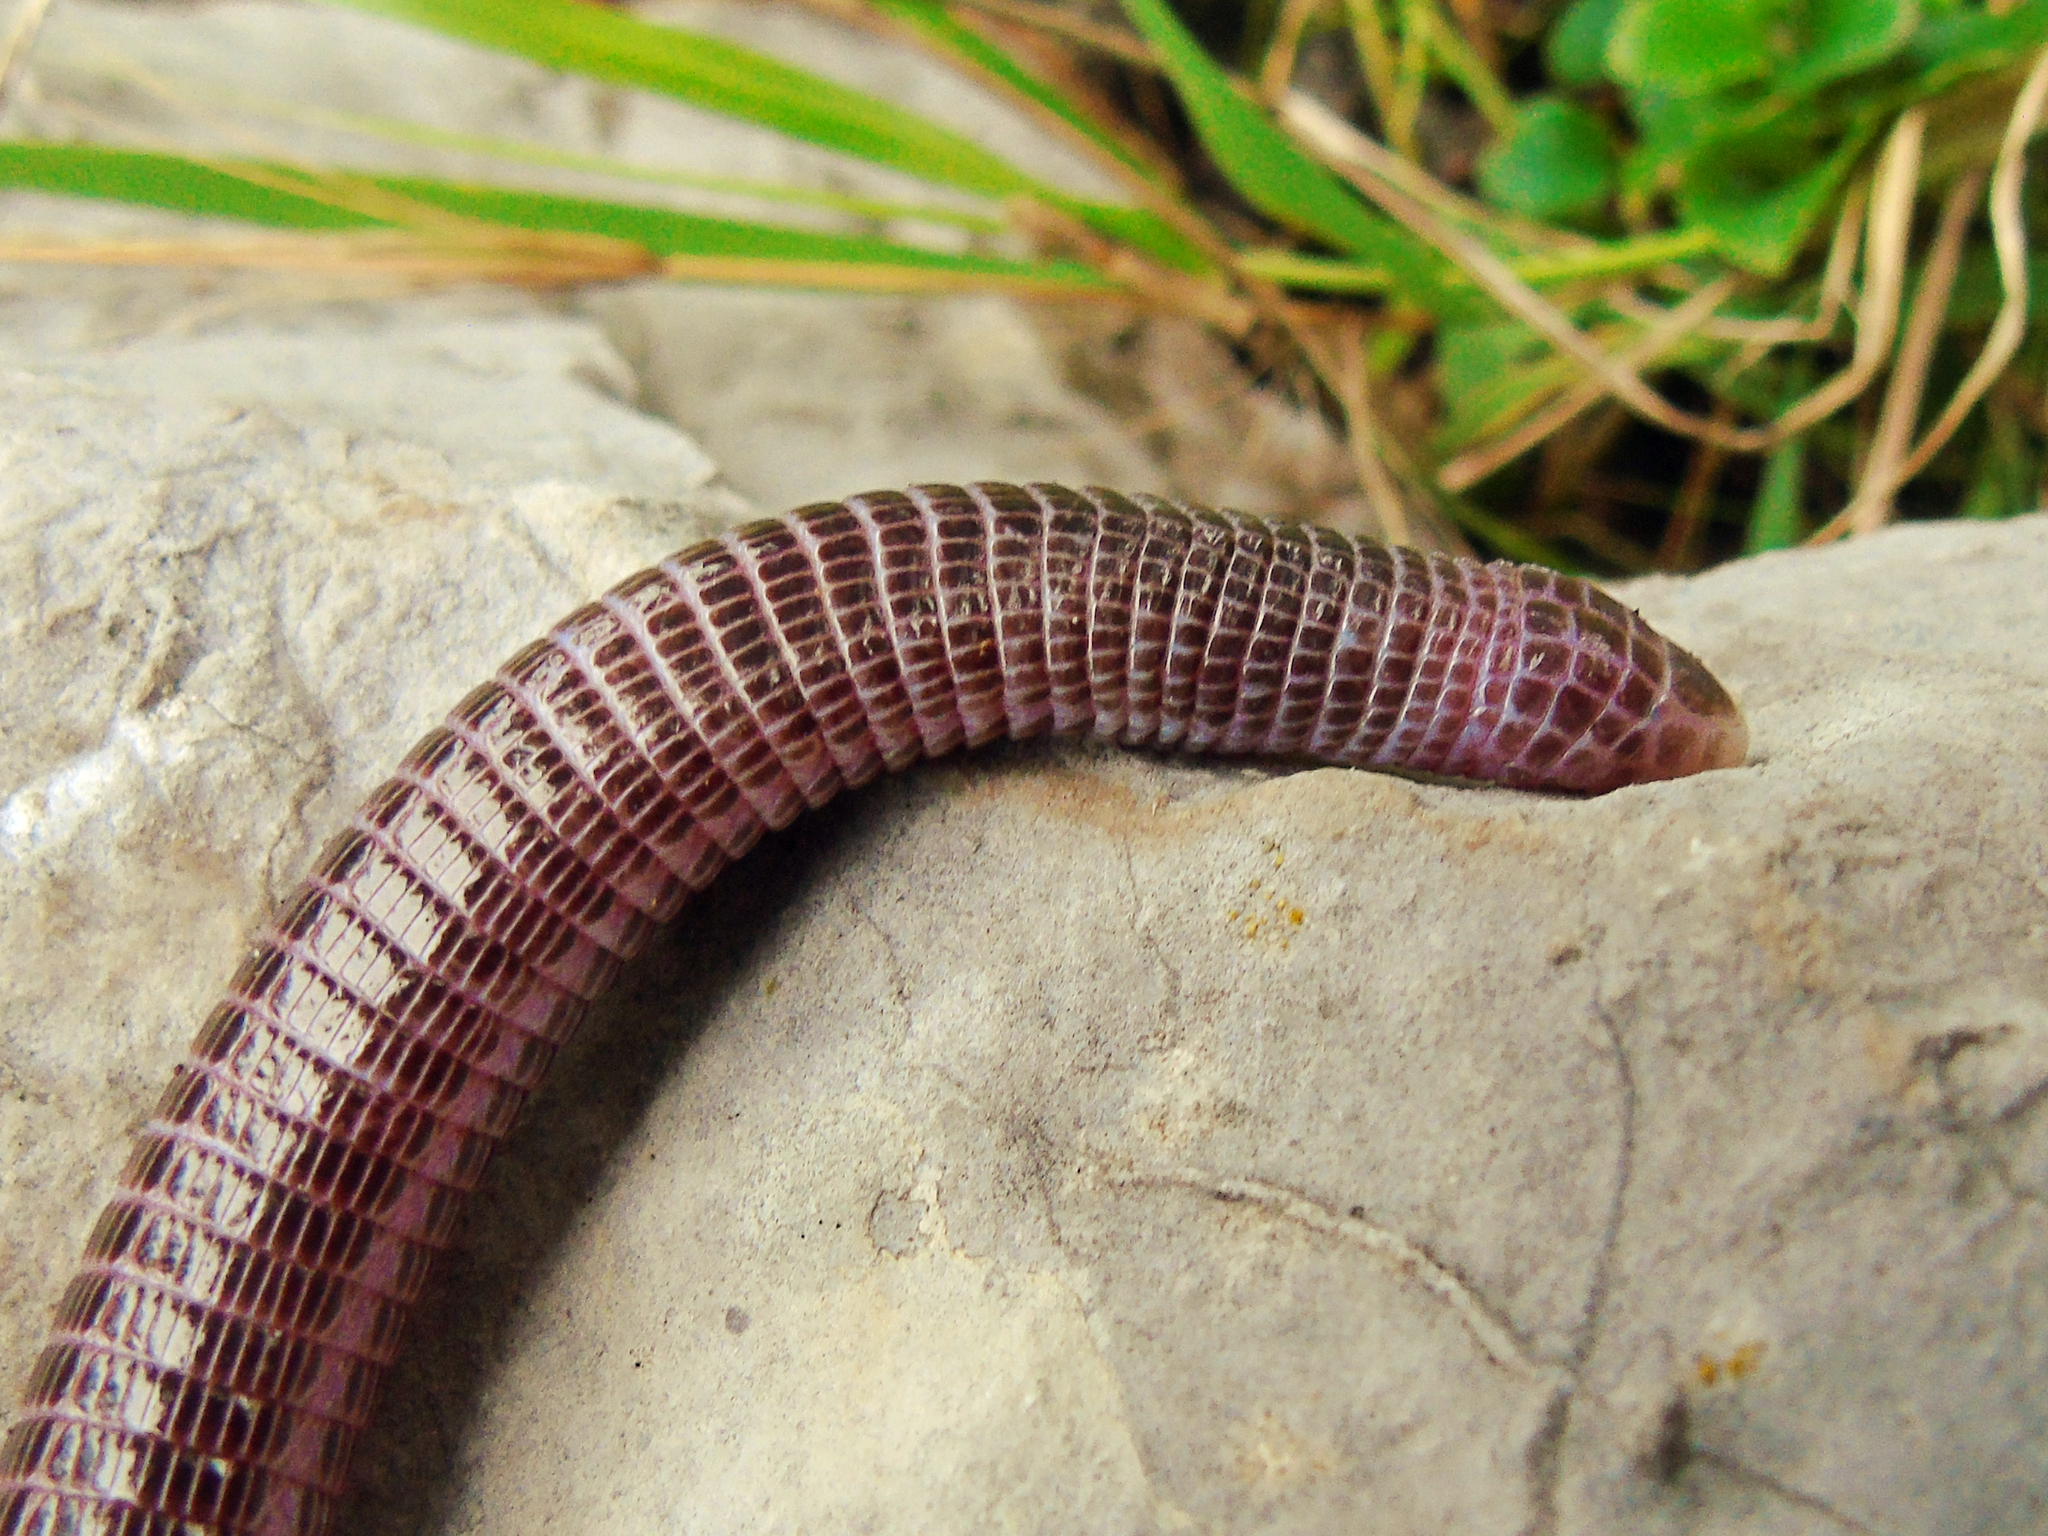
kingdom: Animalia
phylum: Chordata
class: Squamata
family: Blanidae
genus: Blanus
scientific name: Blanus aporus
